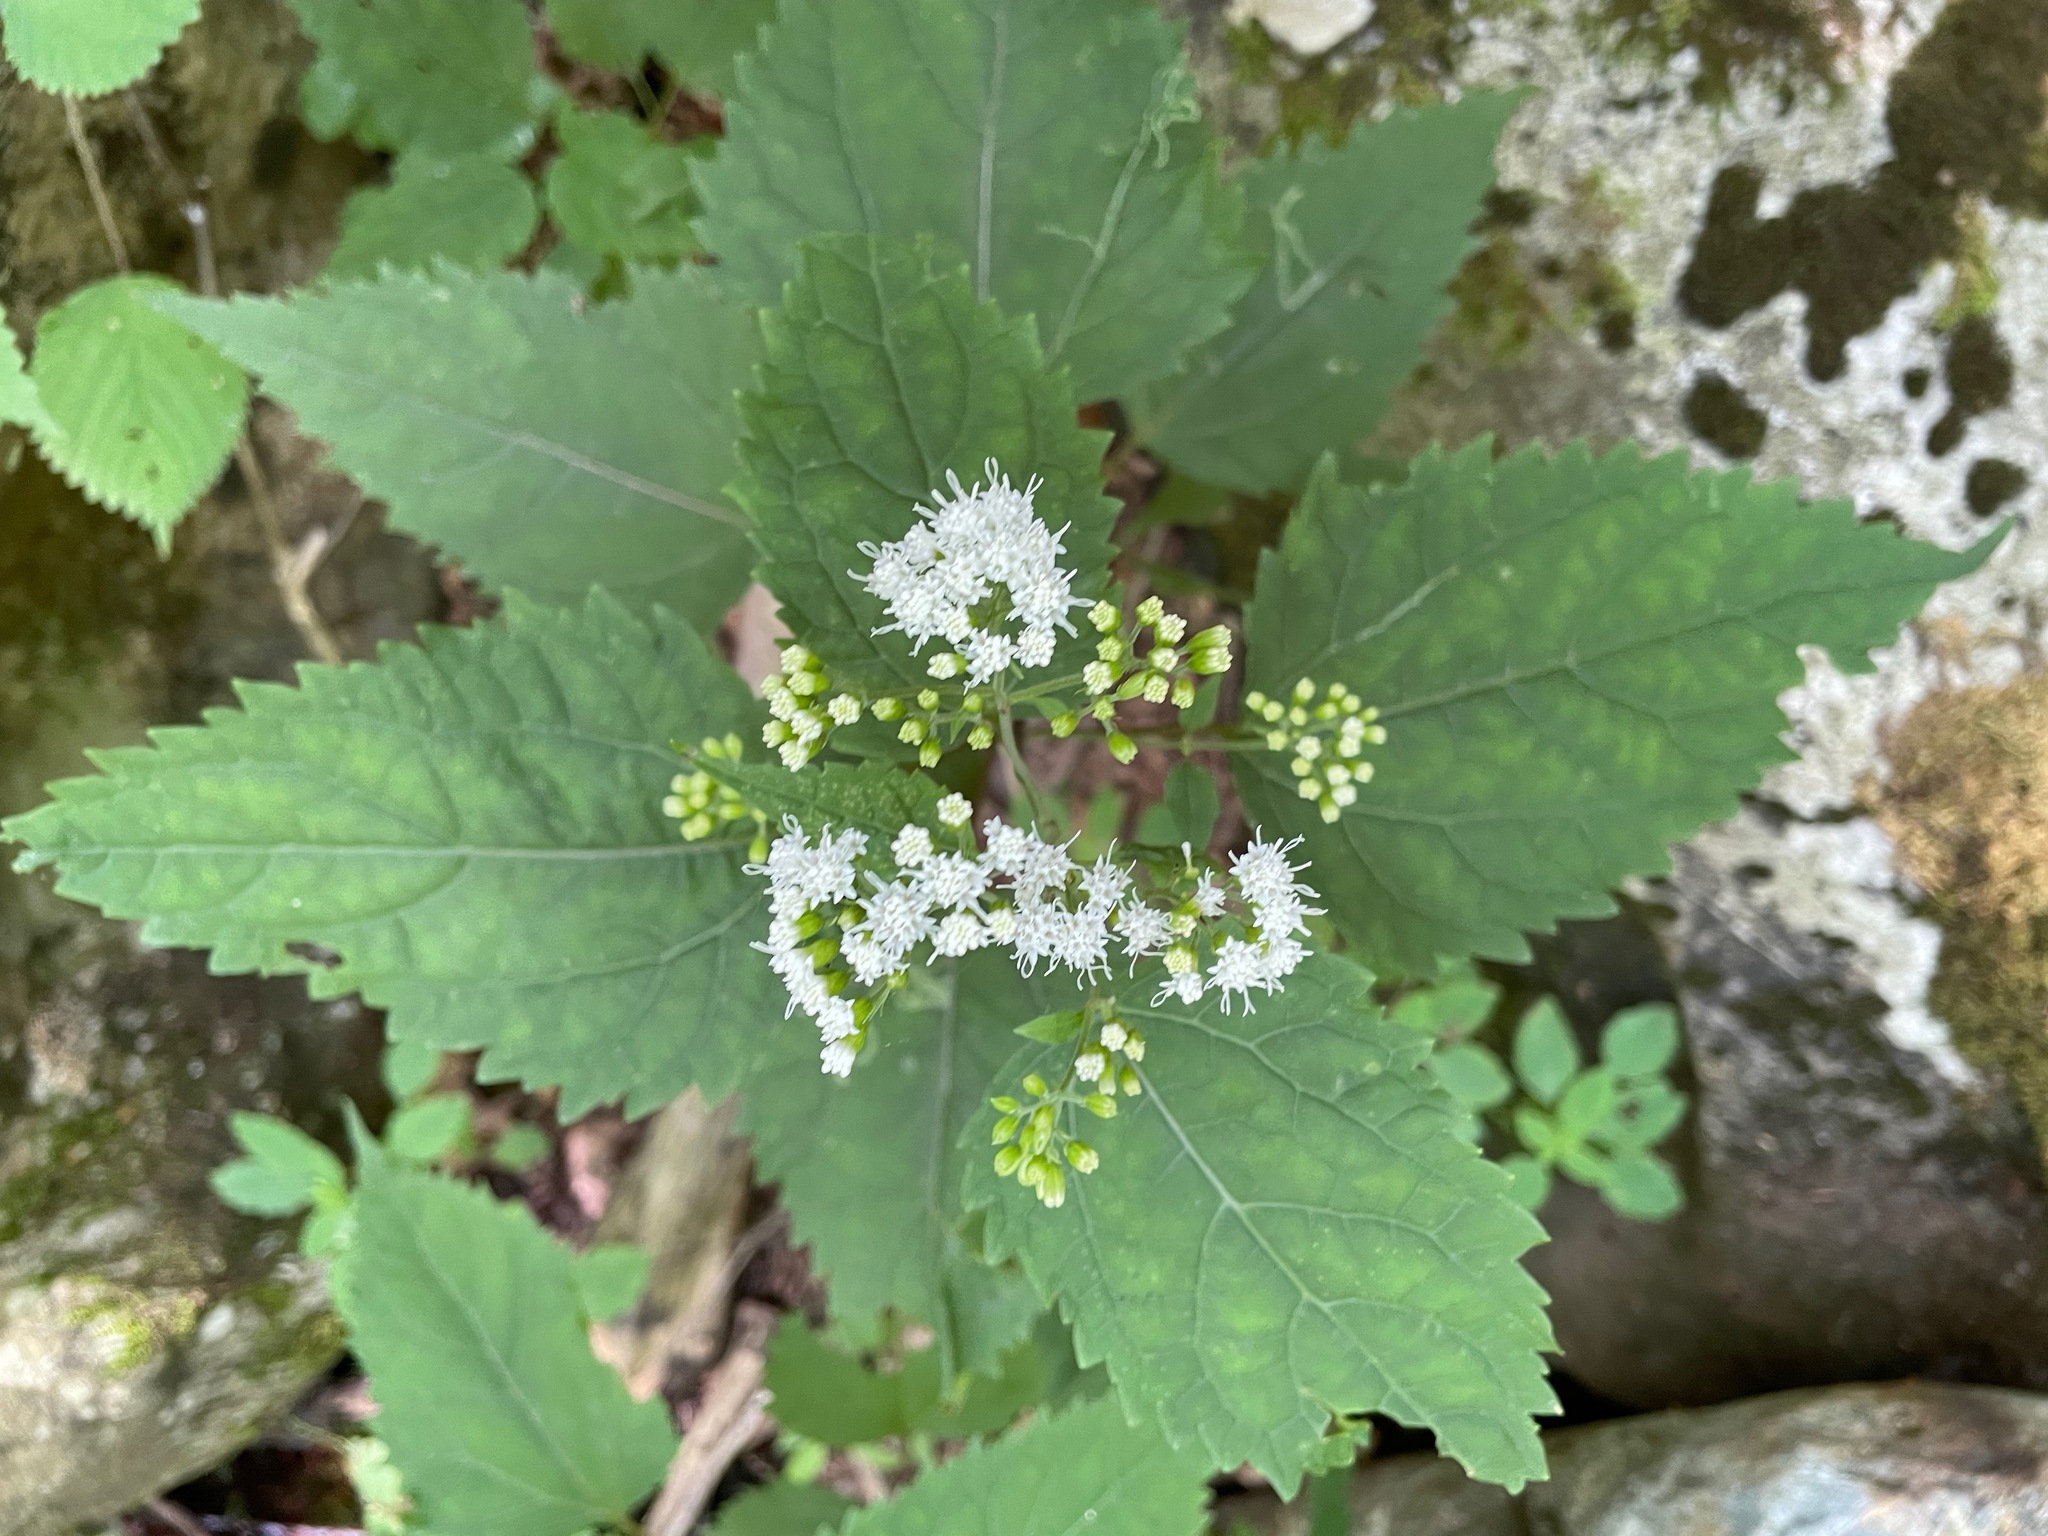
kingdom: Plantae
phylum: Tracheophyta
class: Magnoliopsida
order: Asterales
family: Asteraceae
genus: Ageratina
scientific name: Ageratina altissima
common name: White snakeroot
